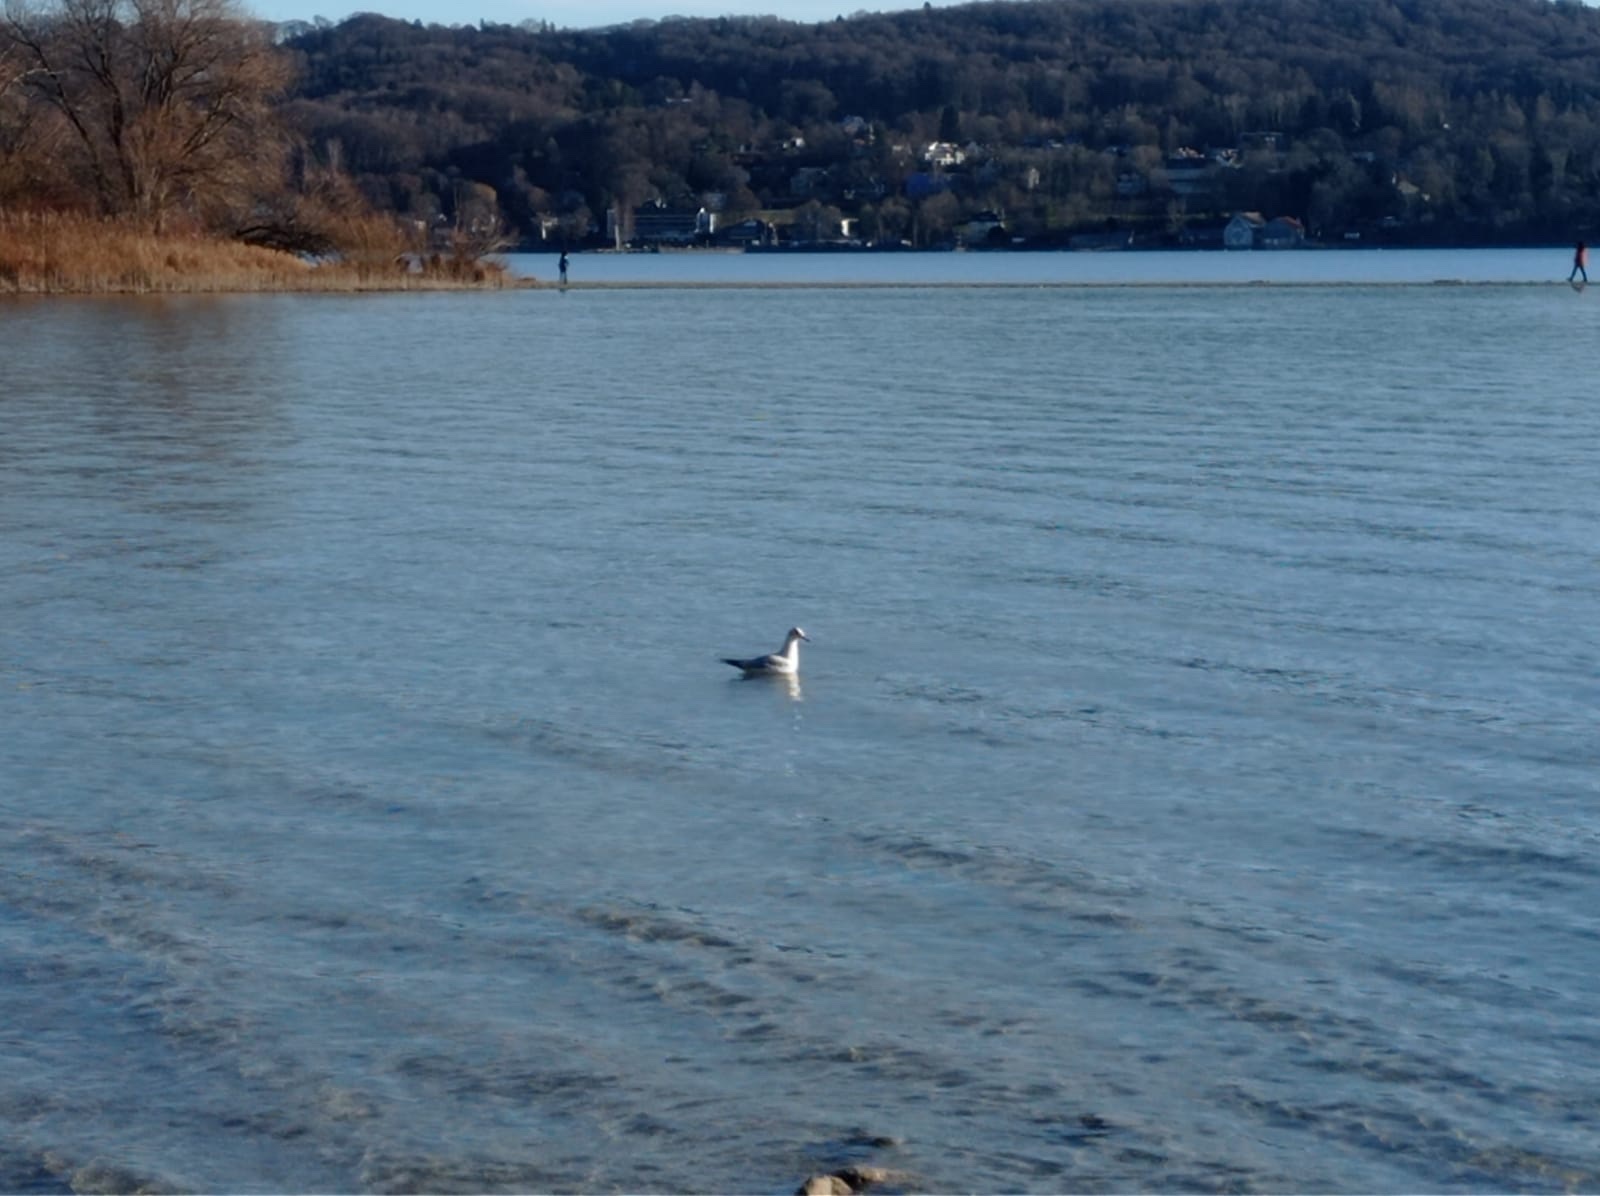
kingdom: Animalia
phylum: Chordata
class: Aves
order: Charadriiformes
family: Laridae
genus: Chroicocephalus
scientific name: Chroicocephalus ridibundus
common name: Black-headed gull
